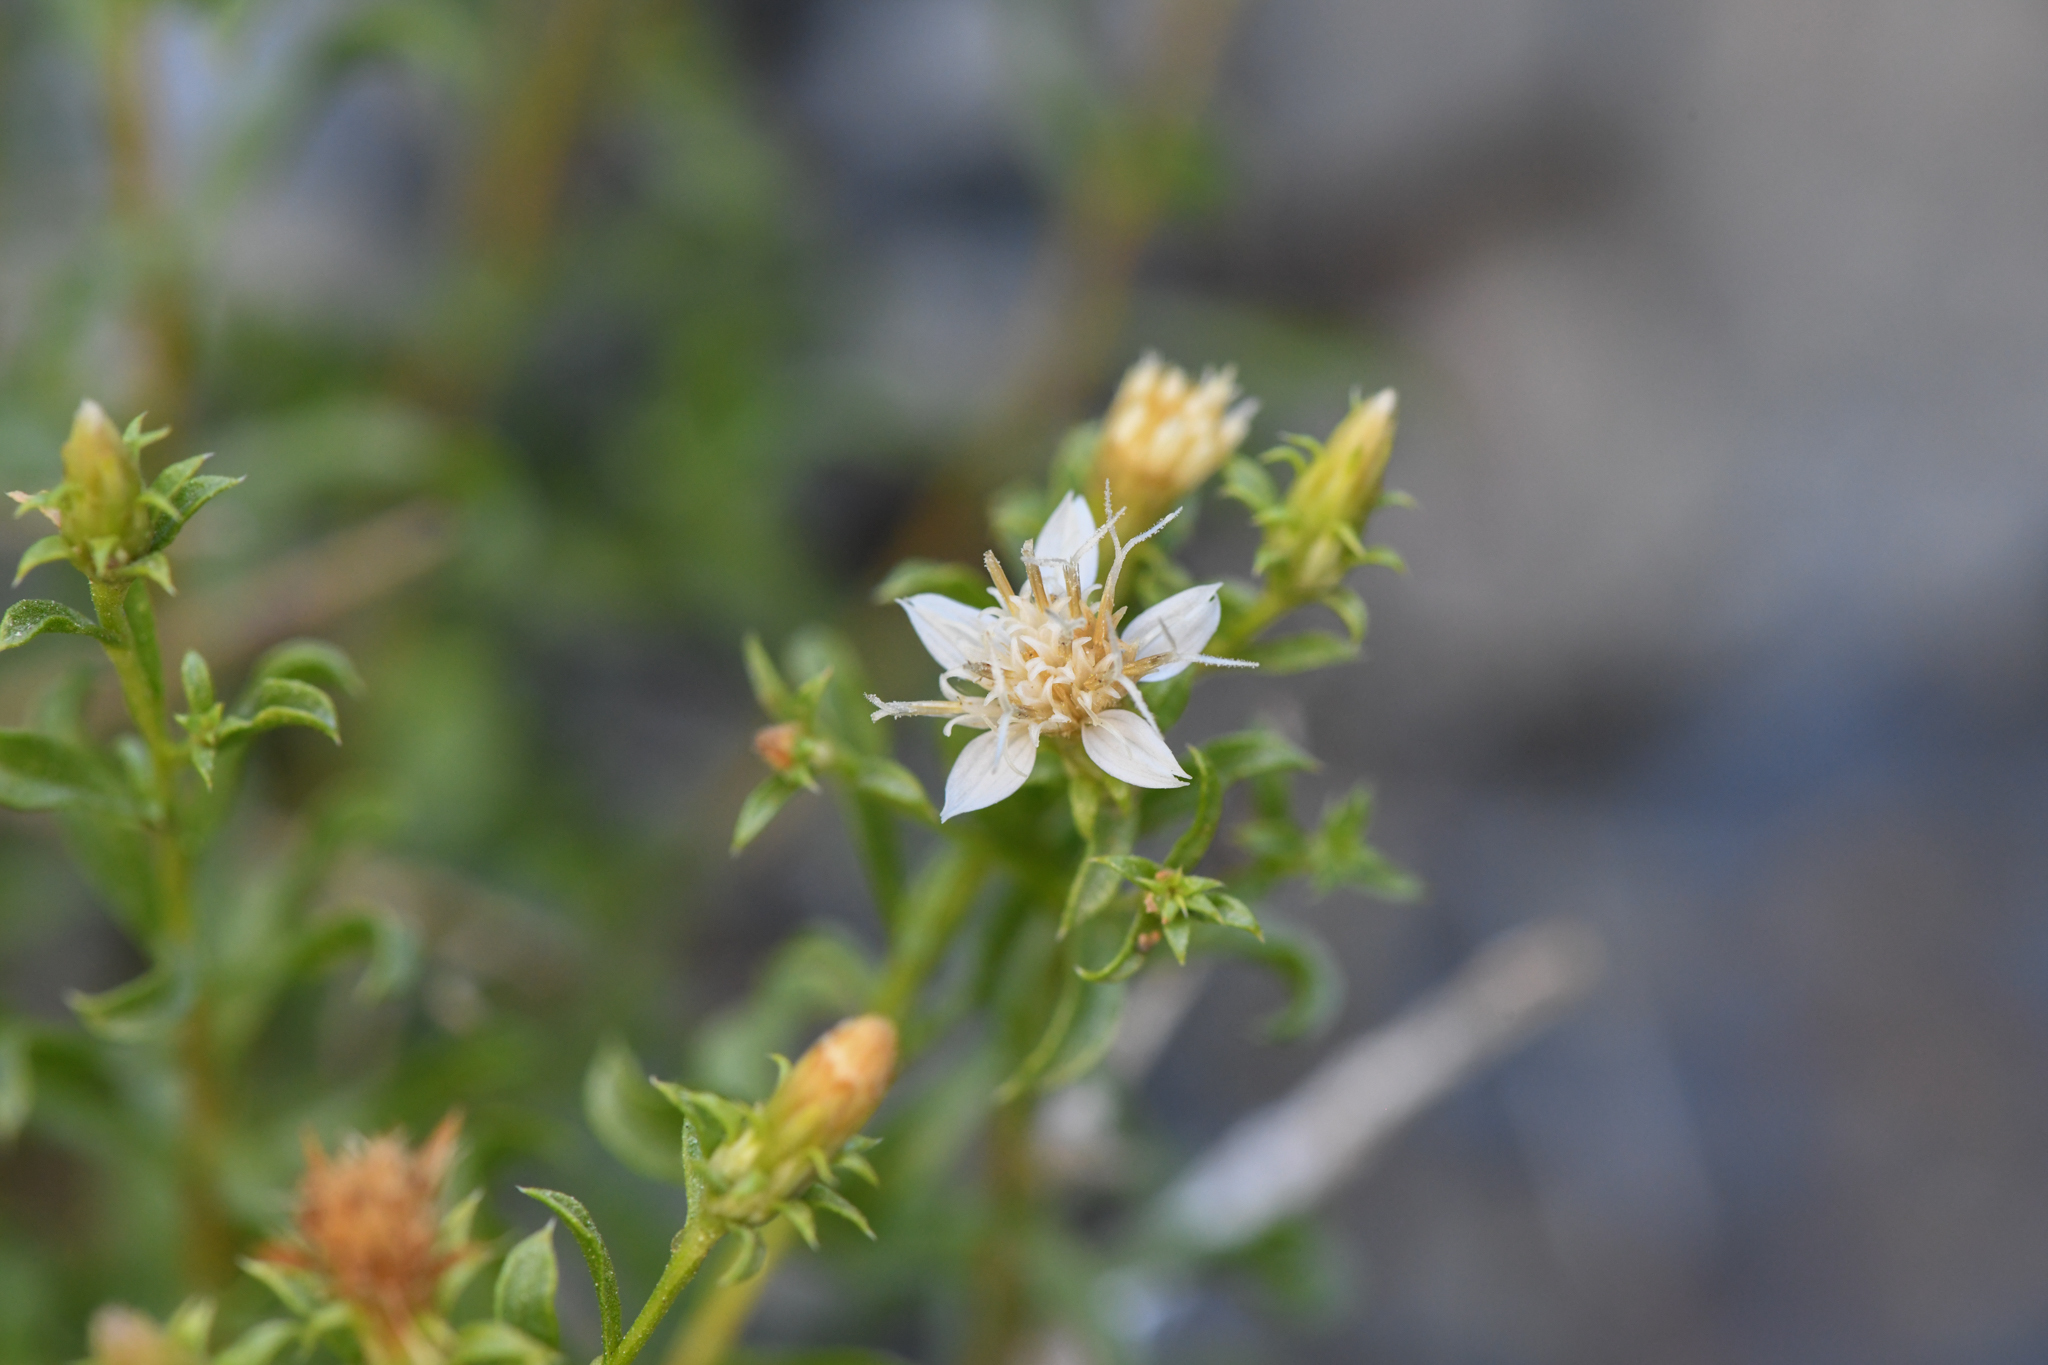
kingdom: Plantae
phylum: Tracheophyta
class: Magnoliopsida
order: Asterales
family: Asteraceae
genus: Ericameria
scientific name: Ericameria gilmanii
